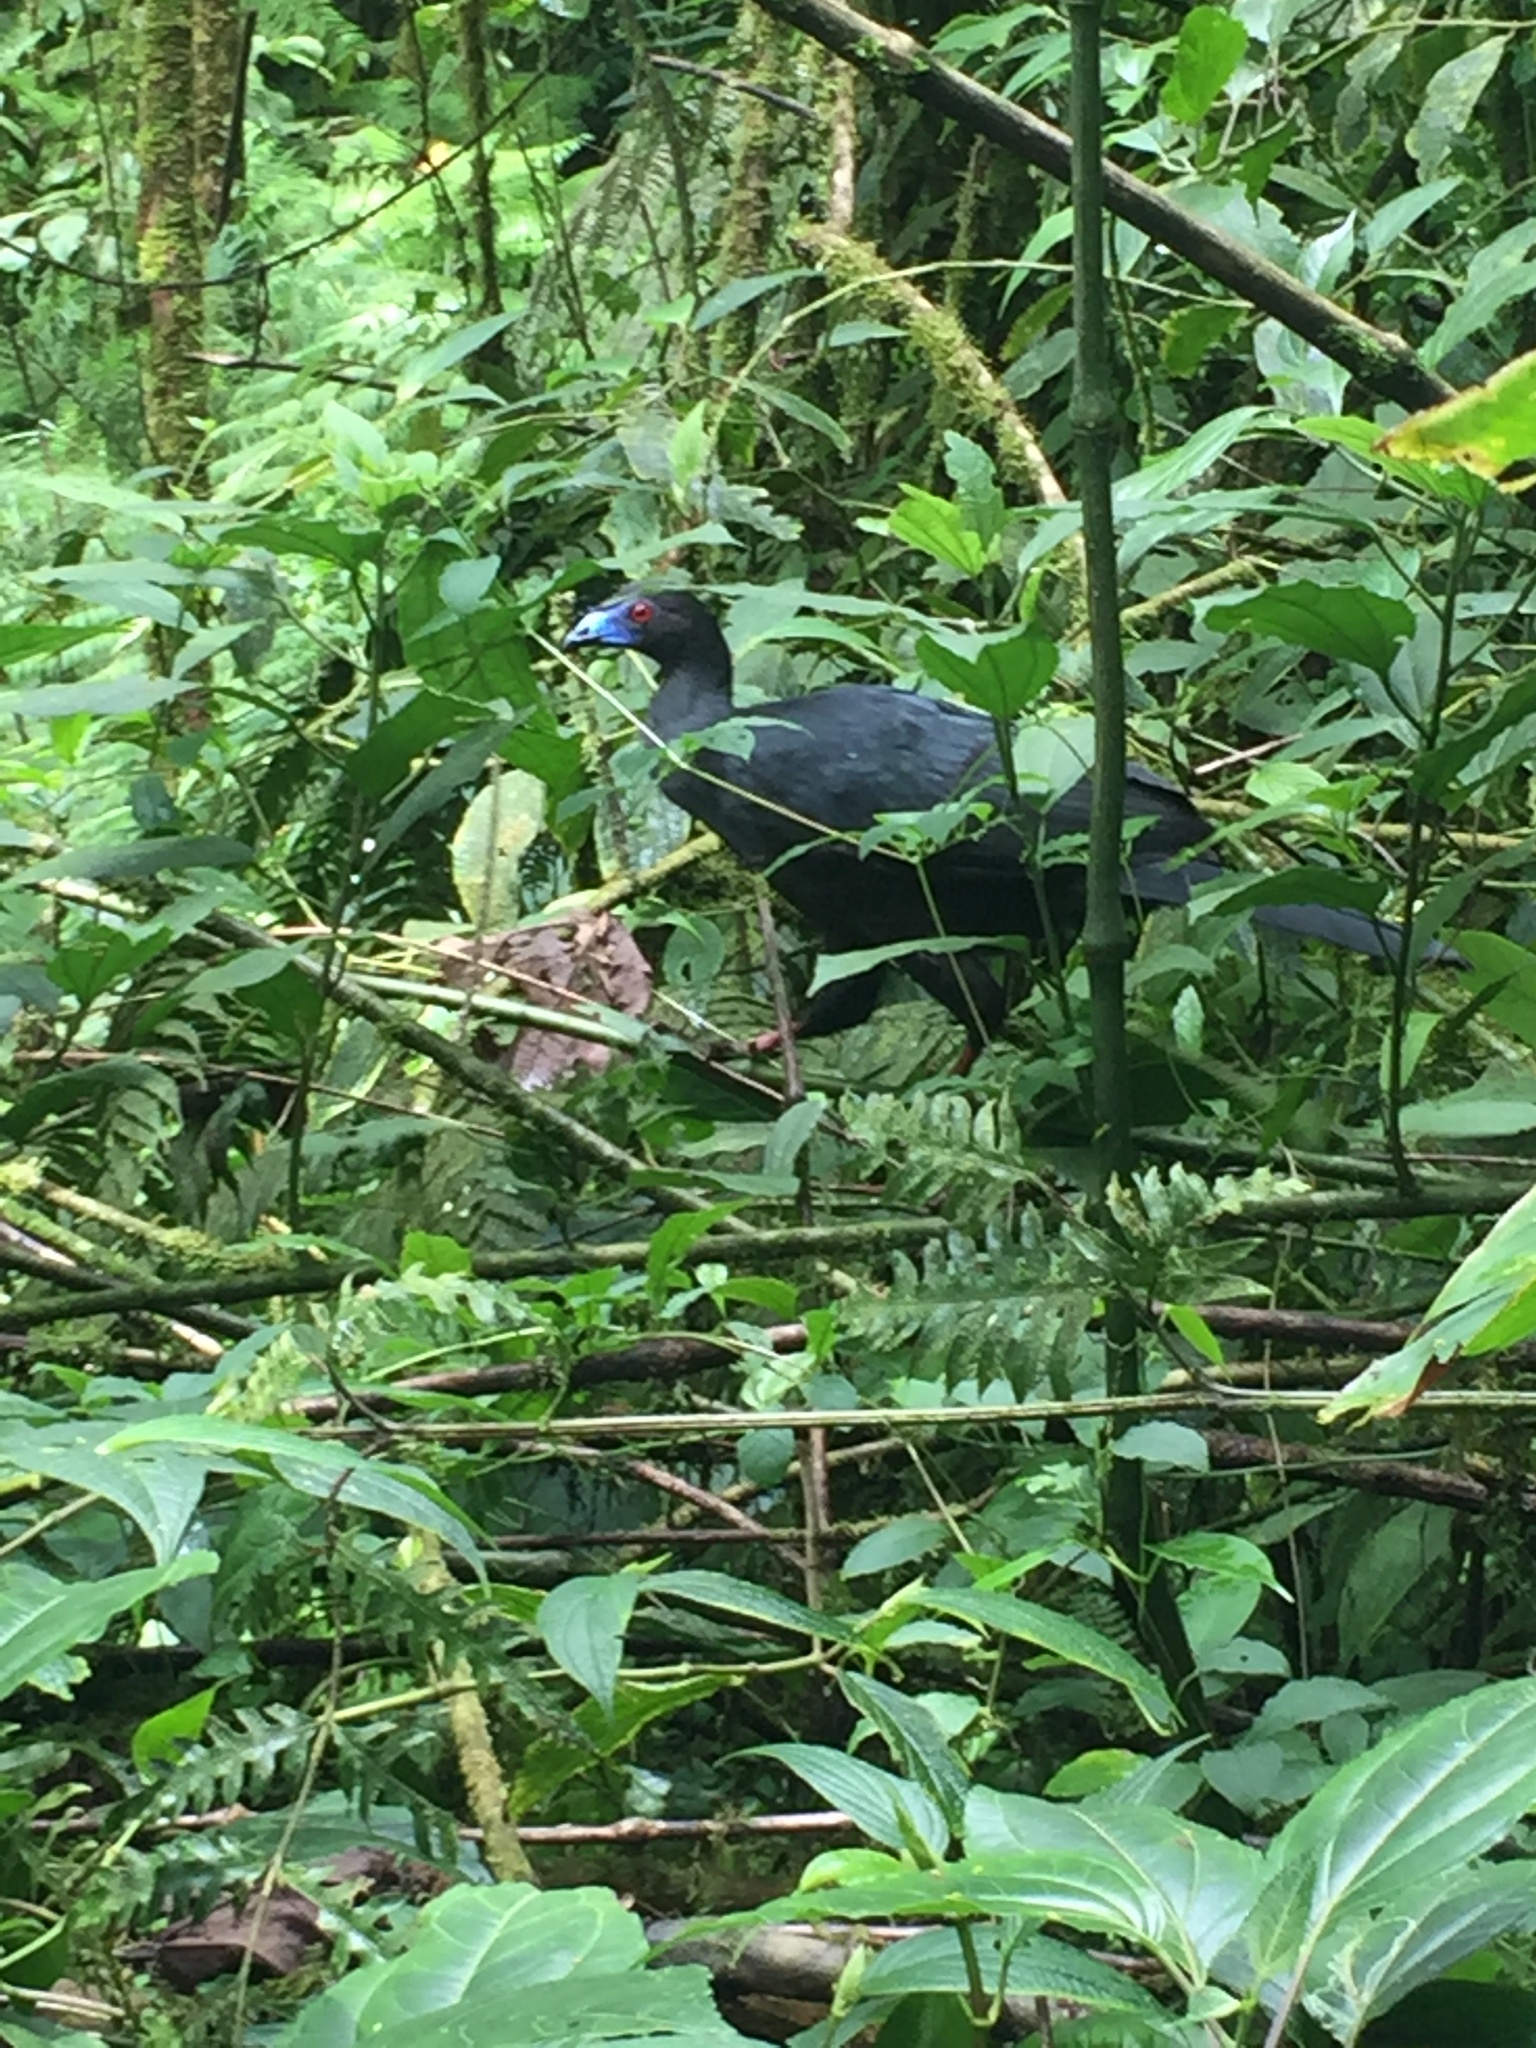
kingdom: Animalia
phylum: Chordata
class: Aves
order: Galliformes
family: Cracidae
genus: Chamaepetes
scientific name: Chamaepetes unicolor
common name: Black guan
